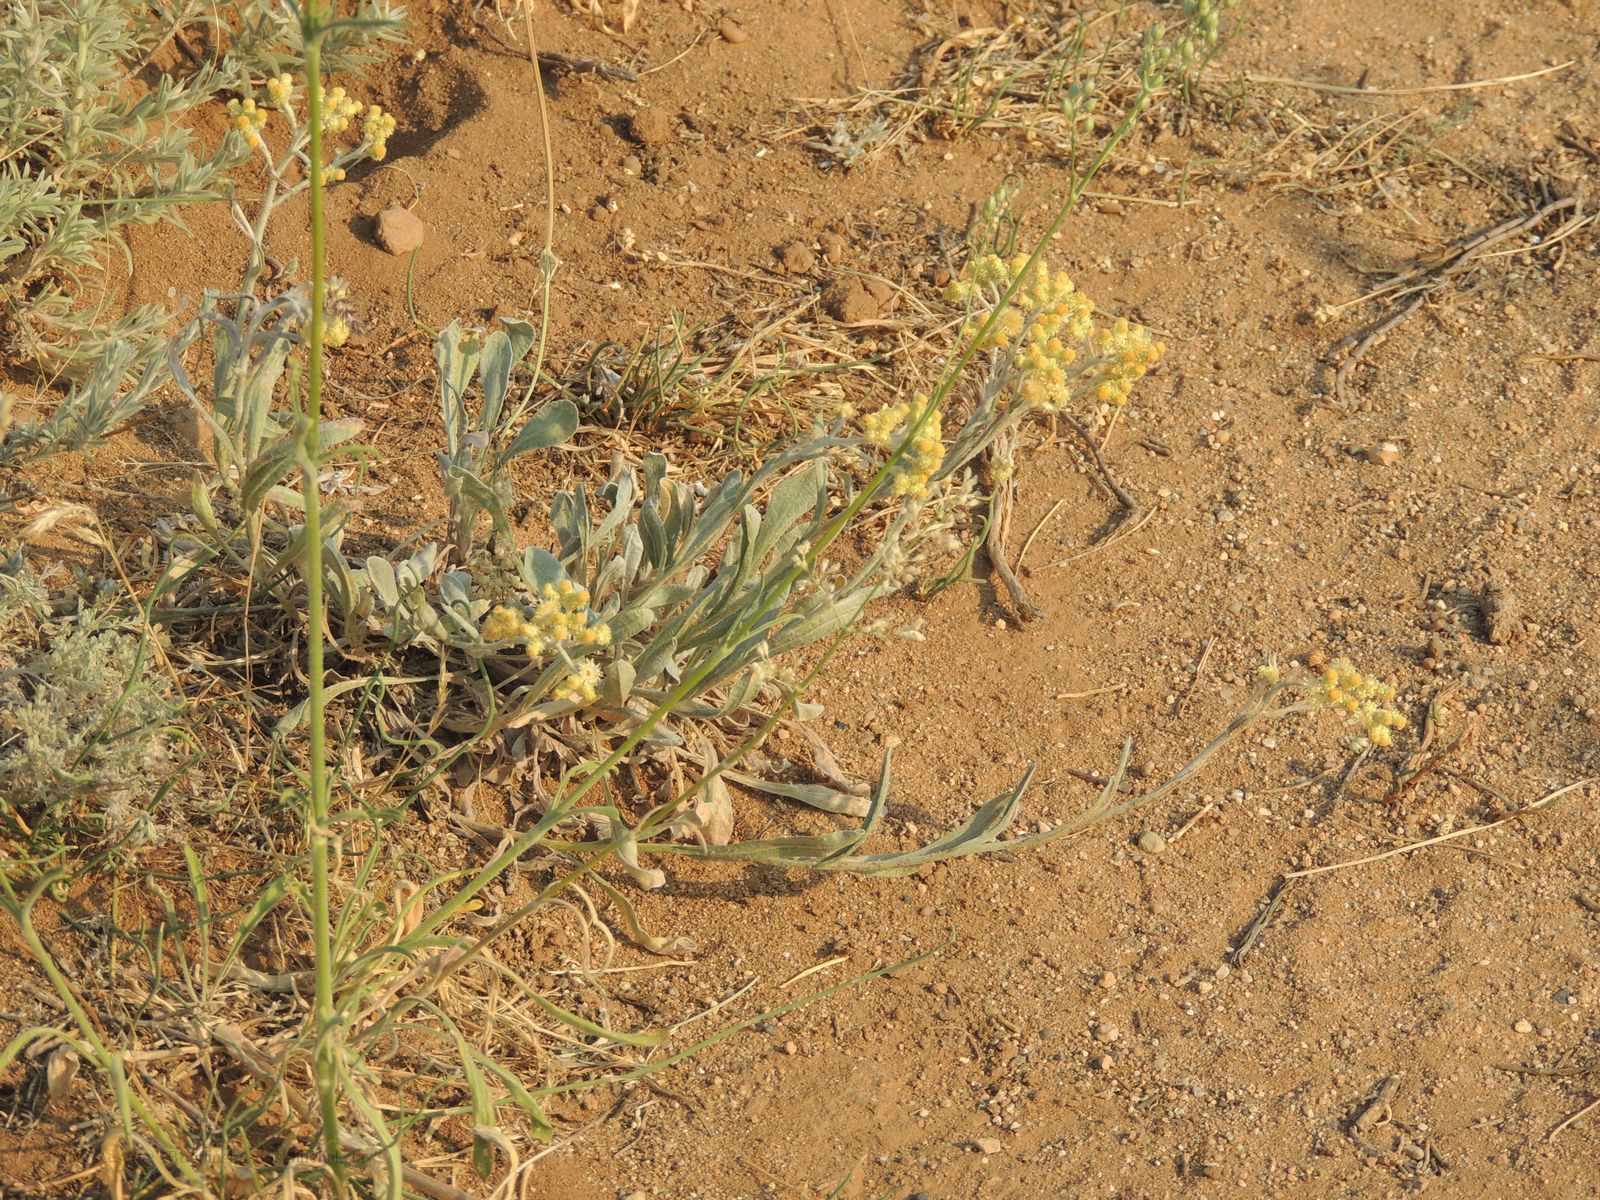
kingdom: Plantae
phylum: Tracheophyta
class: Magnoliopsida
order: Asterales
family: Asteraceae
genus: Helichrysum
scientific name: Helichrysum arenarium
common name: Strawflower
